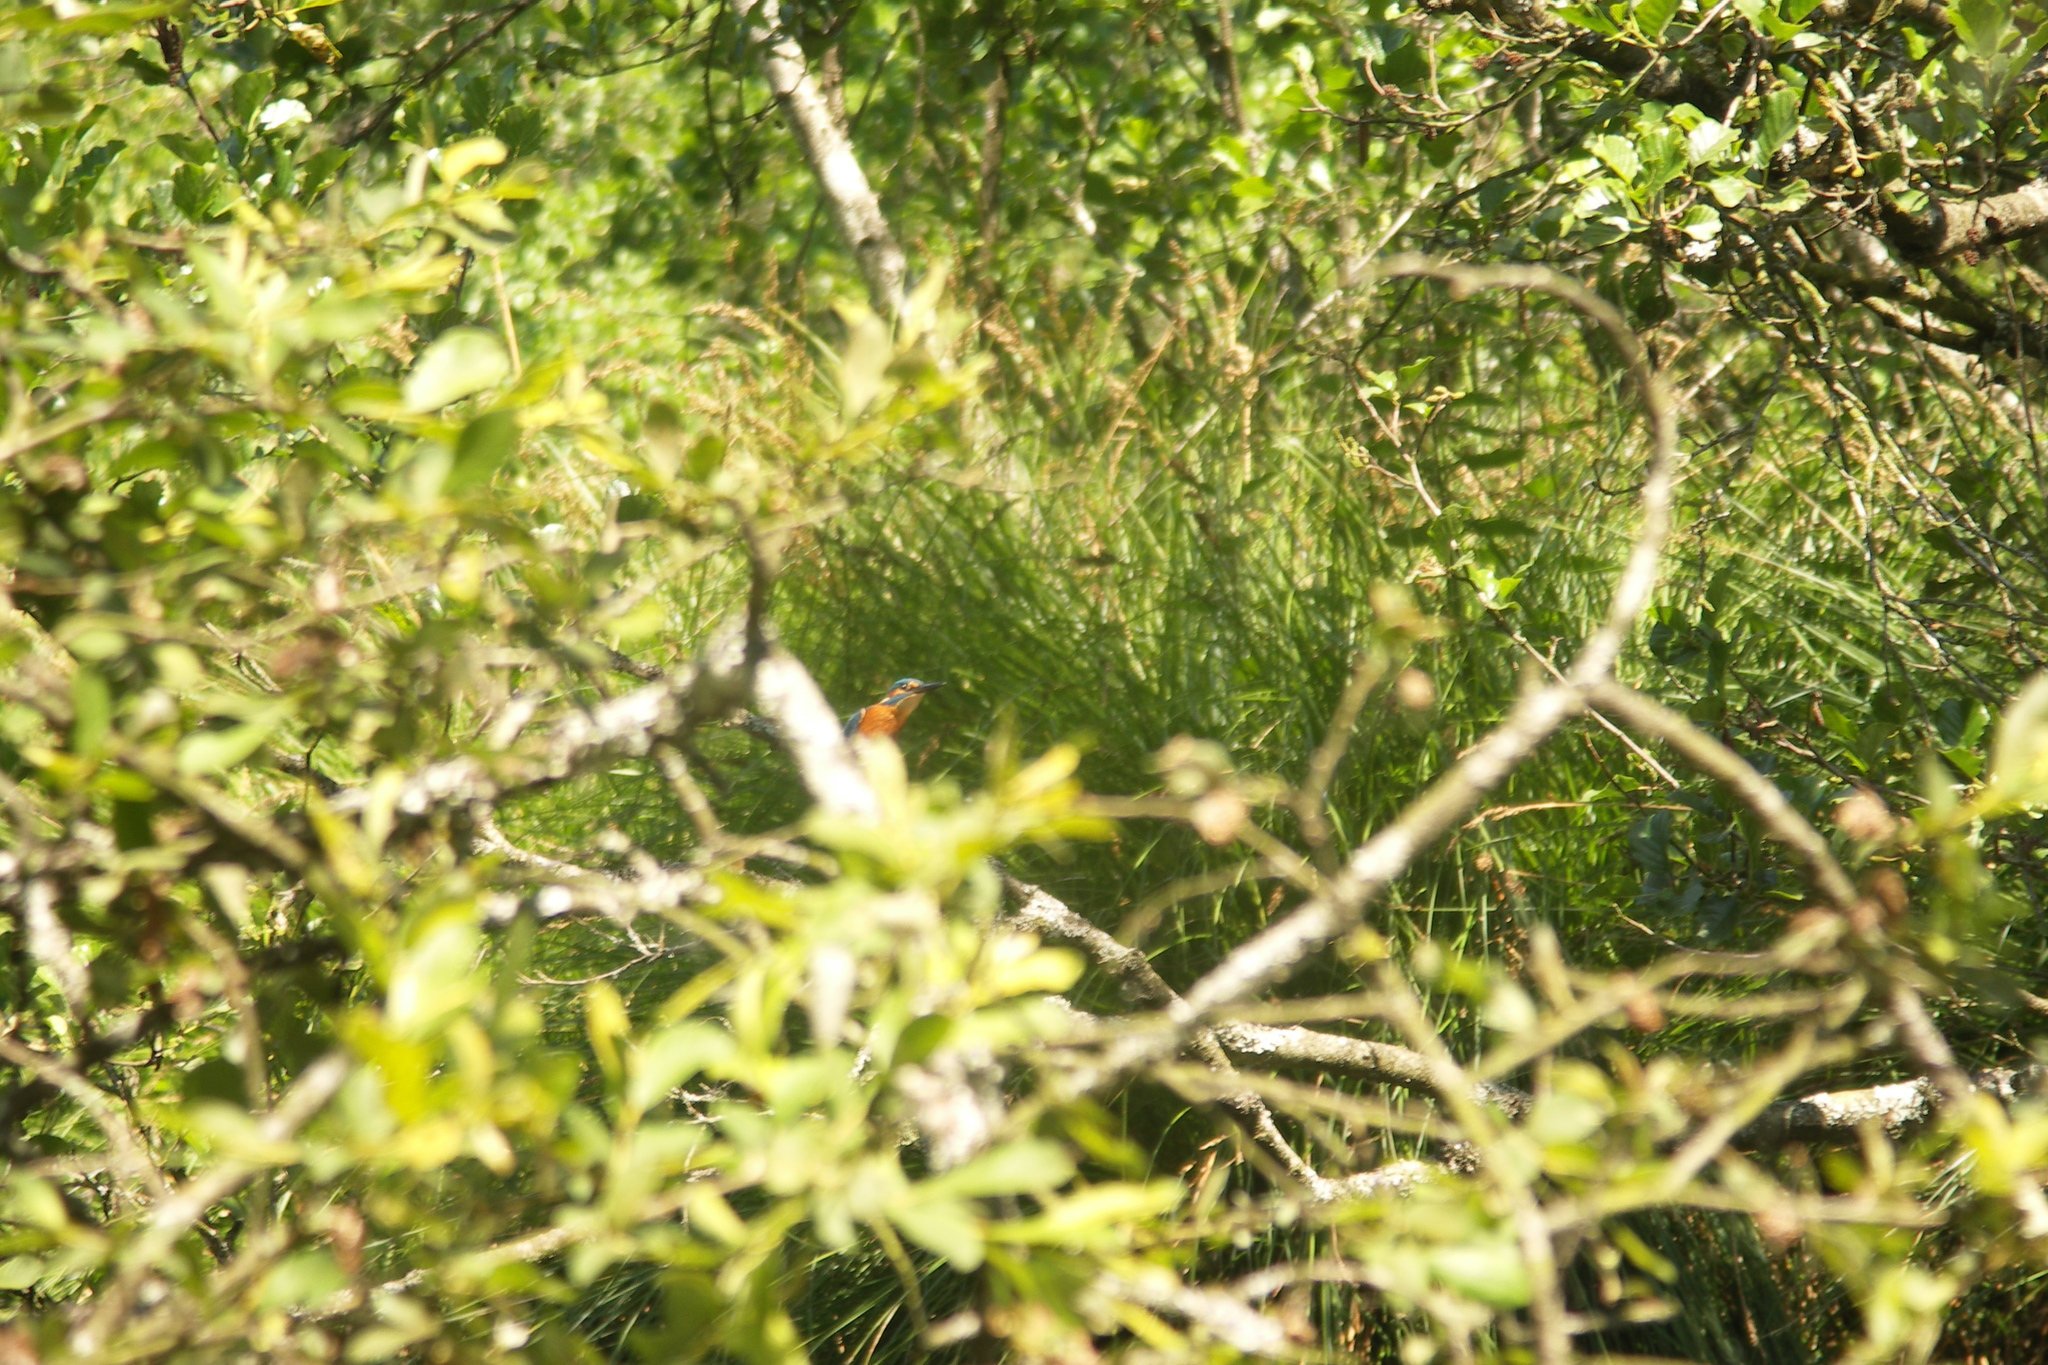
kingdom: Animalia
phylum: Chordata
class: Aves
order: Coraciiformes
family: Alcedinidae
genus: Alcedo
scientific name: Alcedo atthis
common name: Common kingfisher
